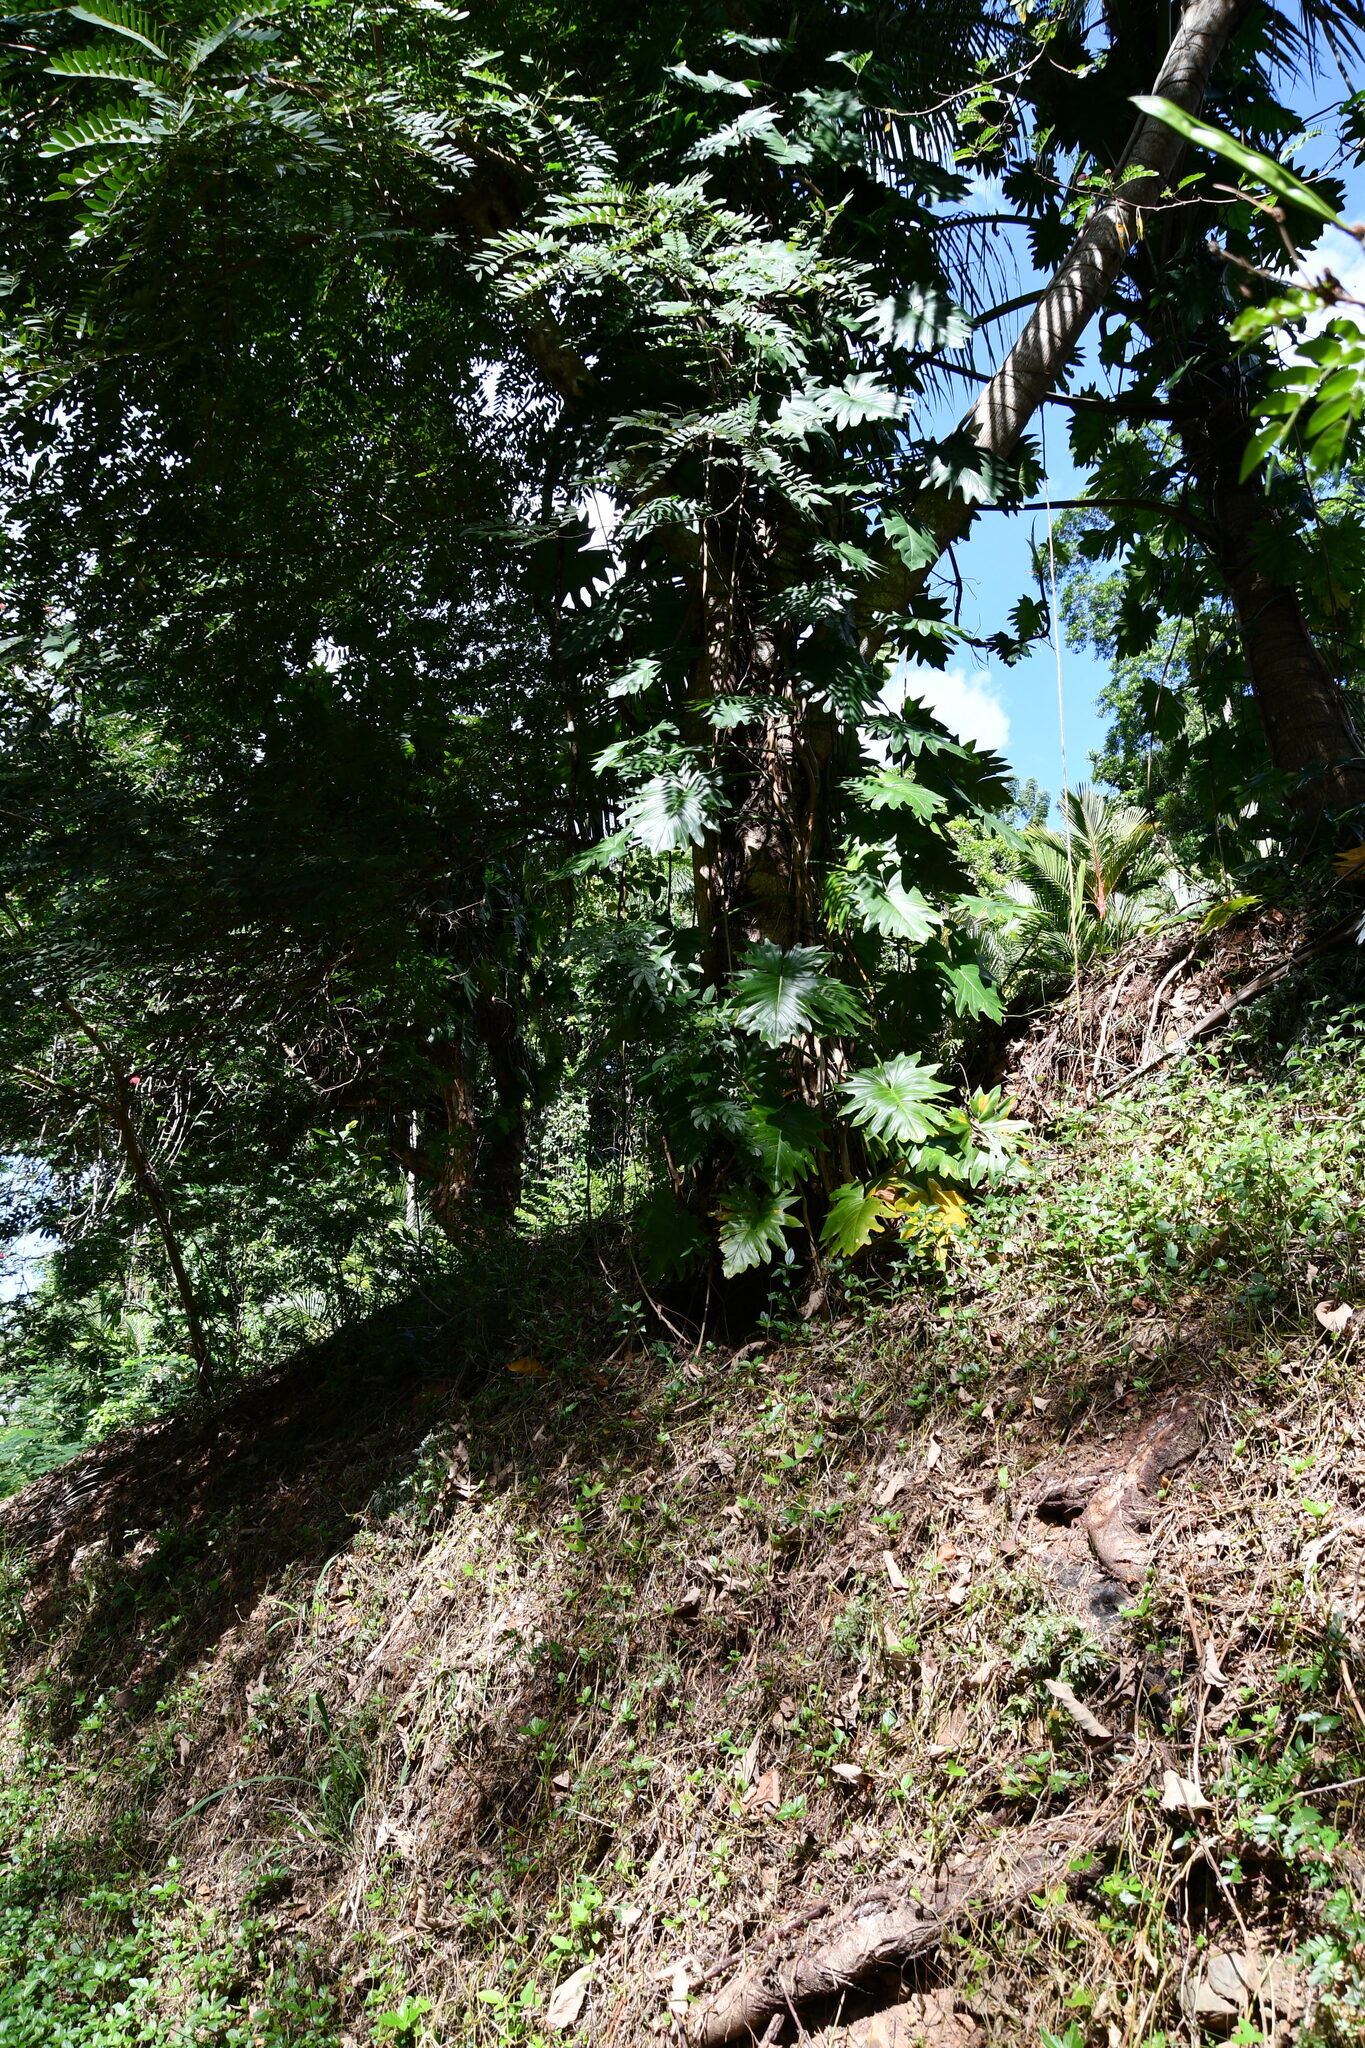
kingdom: Plantae
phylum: Tracheophyta
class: Liliopsida
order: Alismatales
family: Araceae
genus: Philodendron
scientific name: Philodendron lacerum
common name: Philodendron
